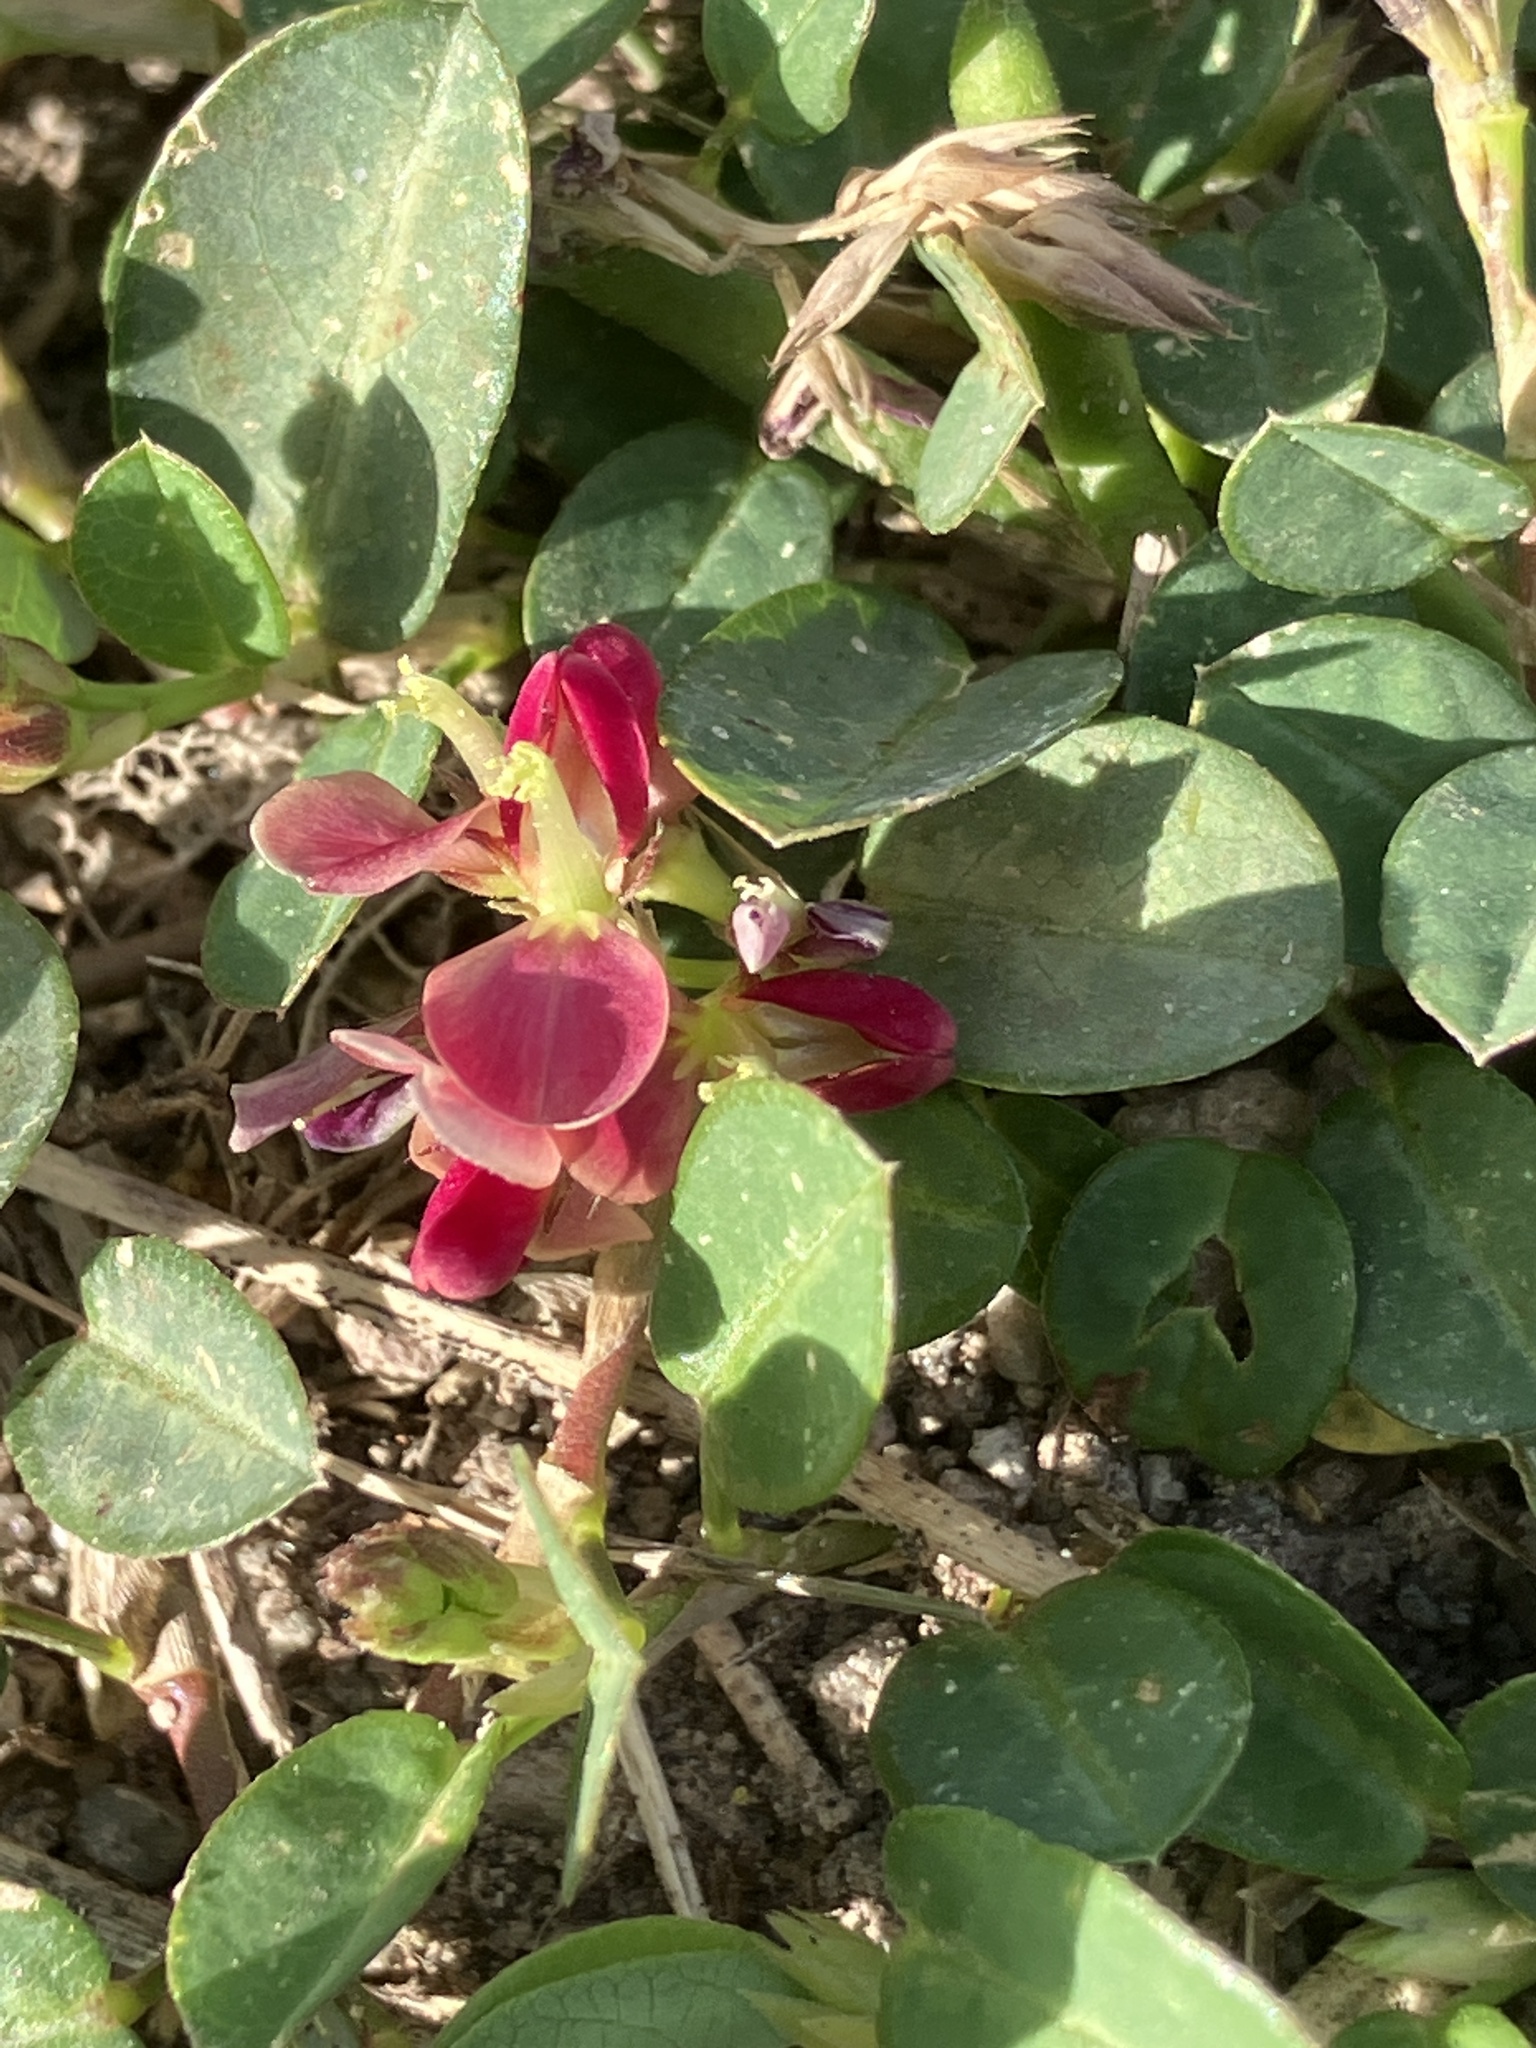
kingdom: Plantae
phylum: Tracheophyta
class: Magnoliopsida
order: Fabales
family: Fabaceae
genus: Alysicarpus
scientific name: Alysicarpus vaginalis
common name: White moneywort
